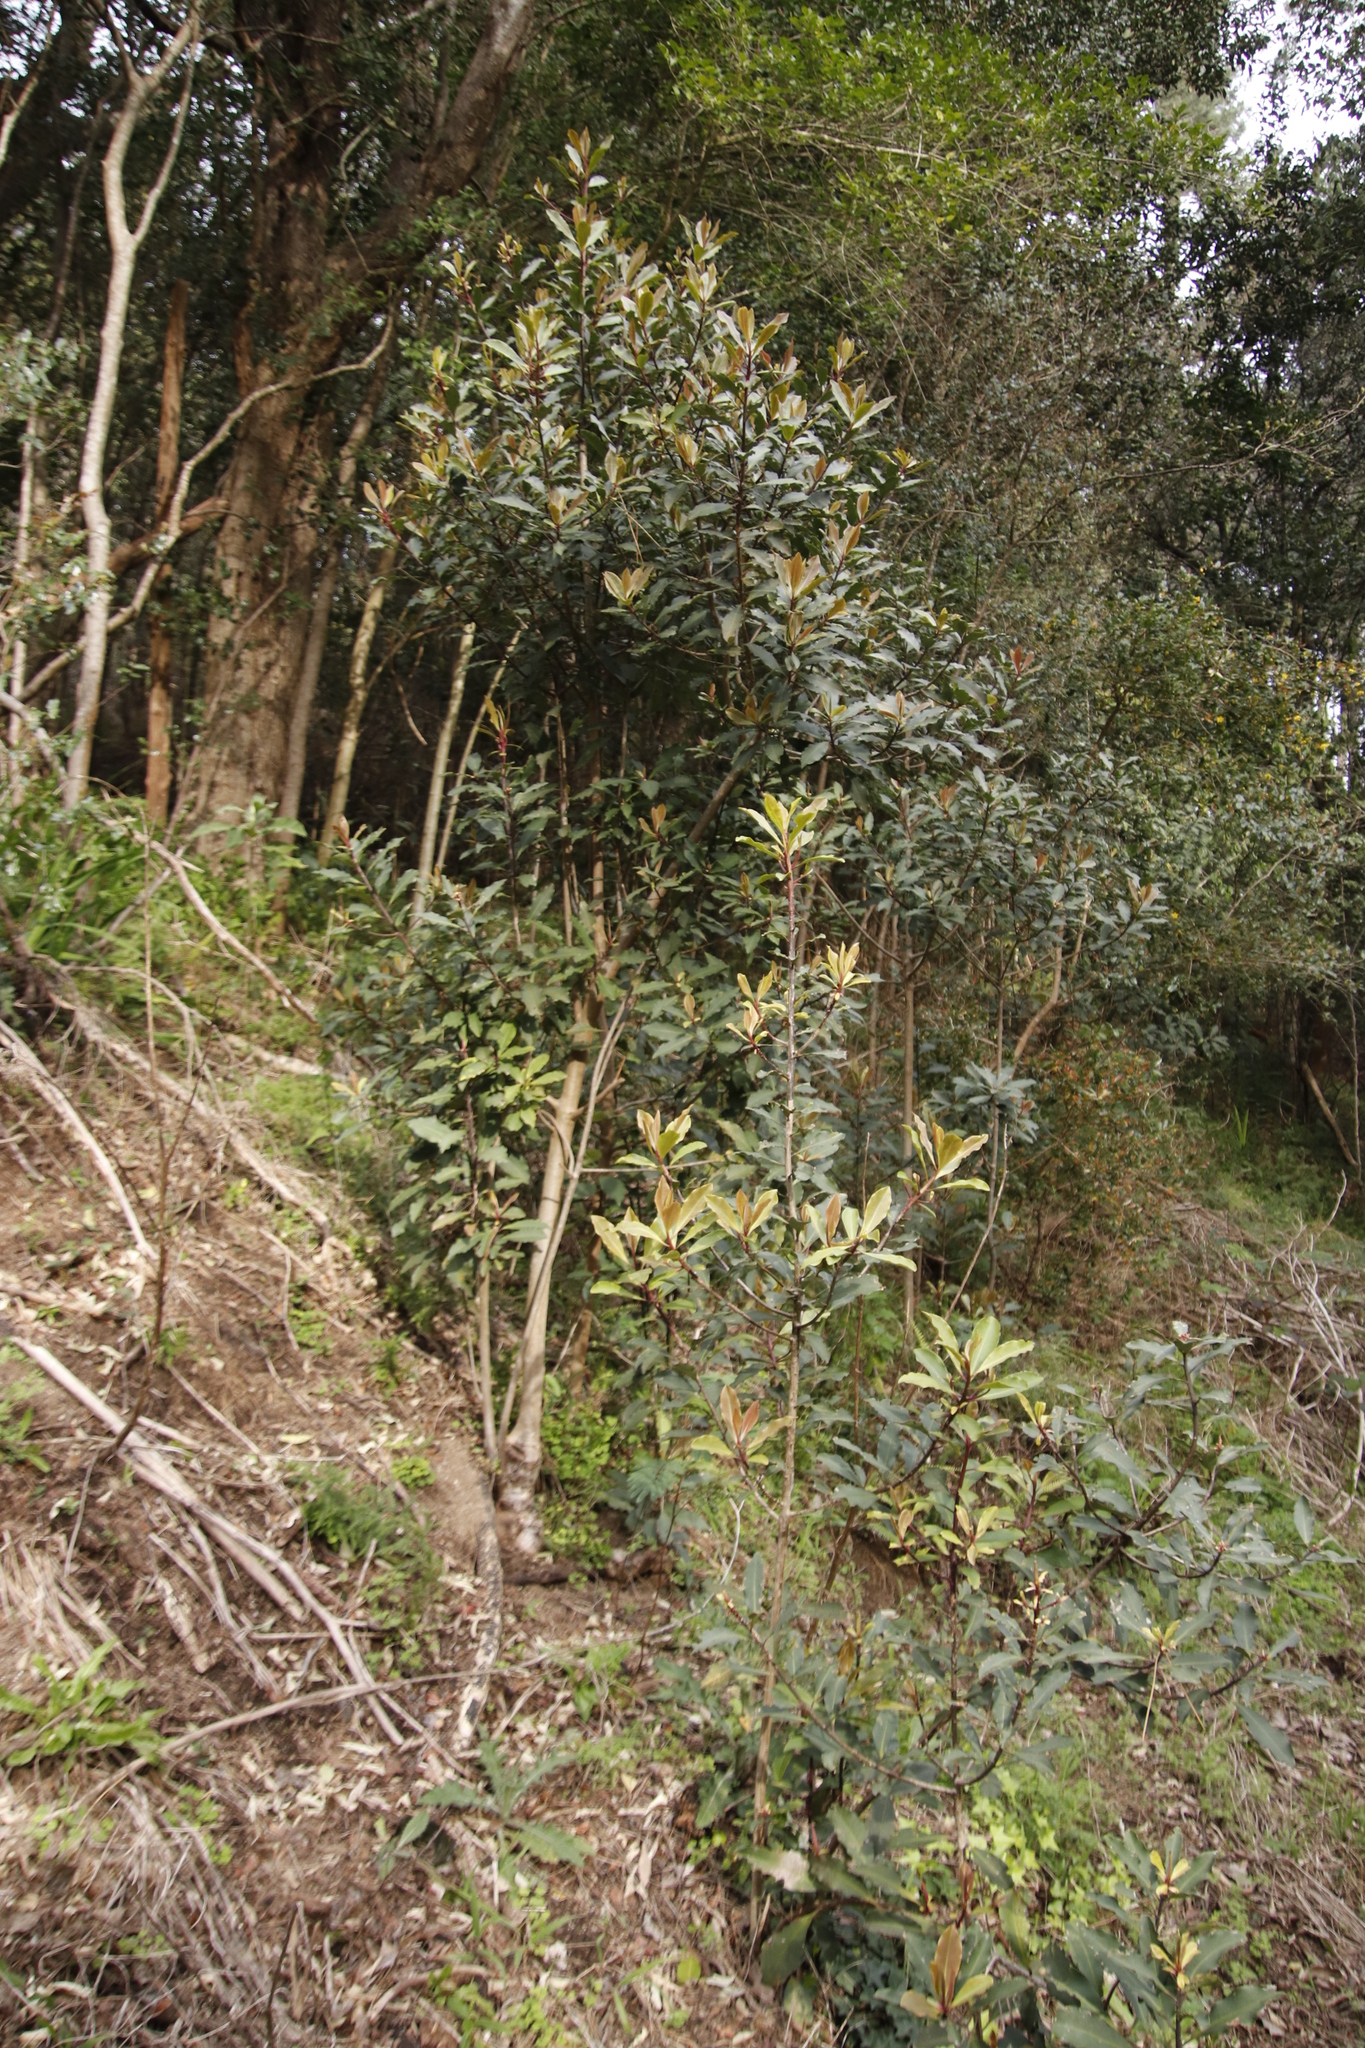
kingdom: Plantae
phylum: Tracheophyta
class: Magnoliopsida
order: Ericales
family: Primulaceae
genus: Myrsine
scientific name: Myrsine melanophloeos
